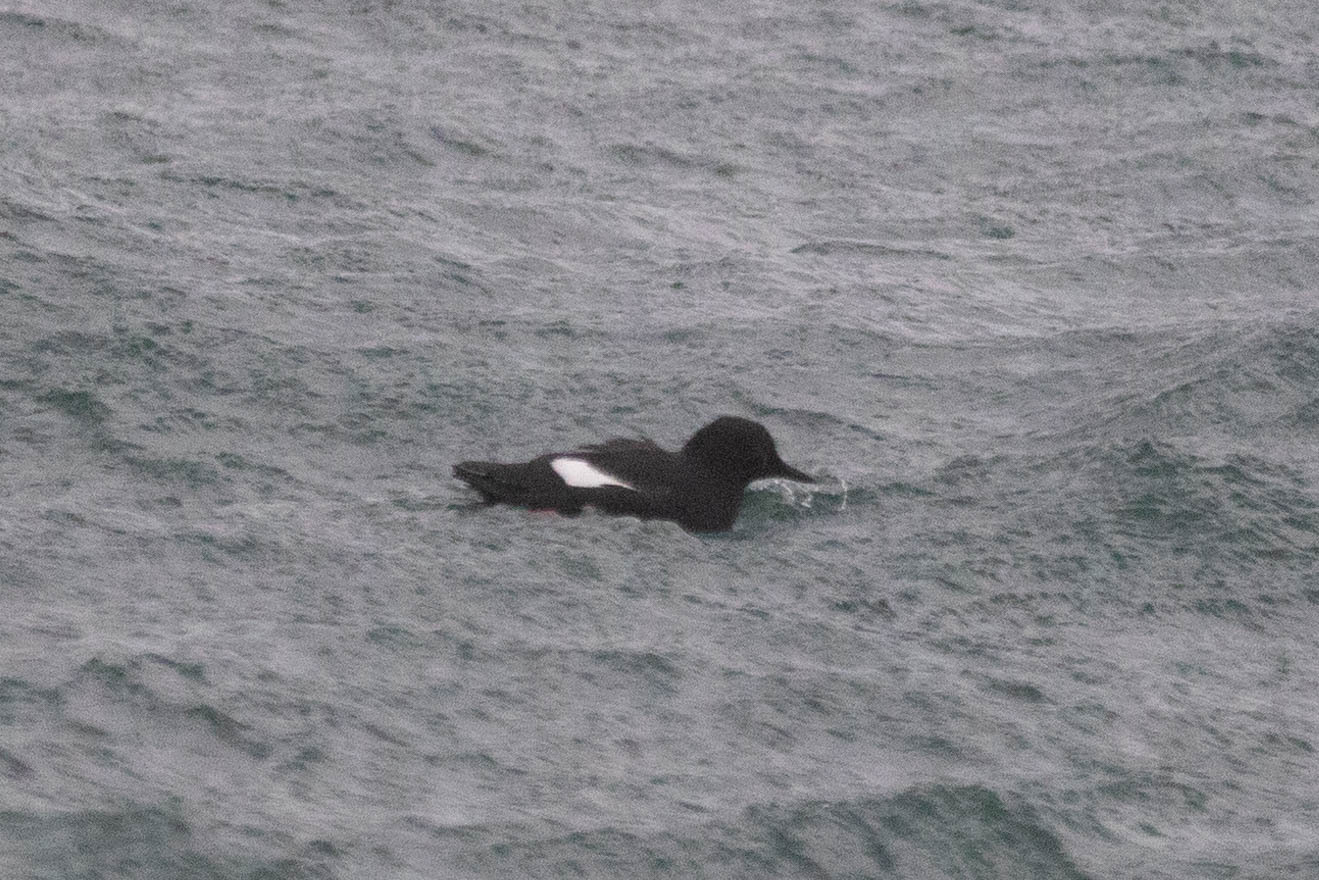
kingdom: Animalia
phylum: Chordata
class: Aves
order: Charadriiformes
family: Alcidae
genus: Cepphus
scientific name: Cepphus columba
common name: Pigeon guillemot
